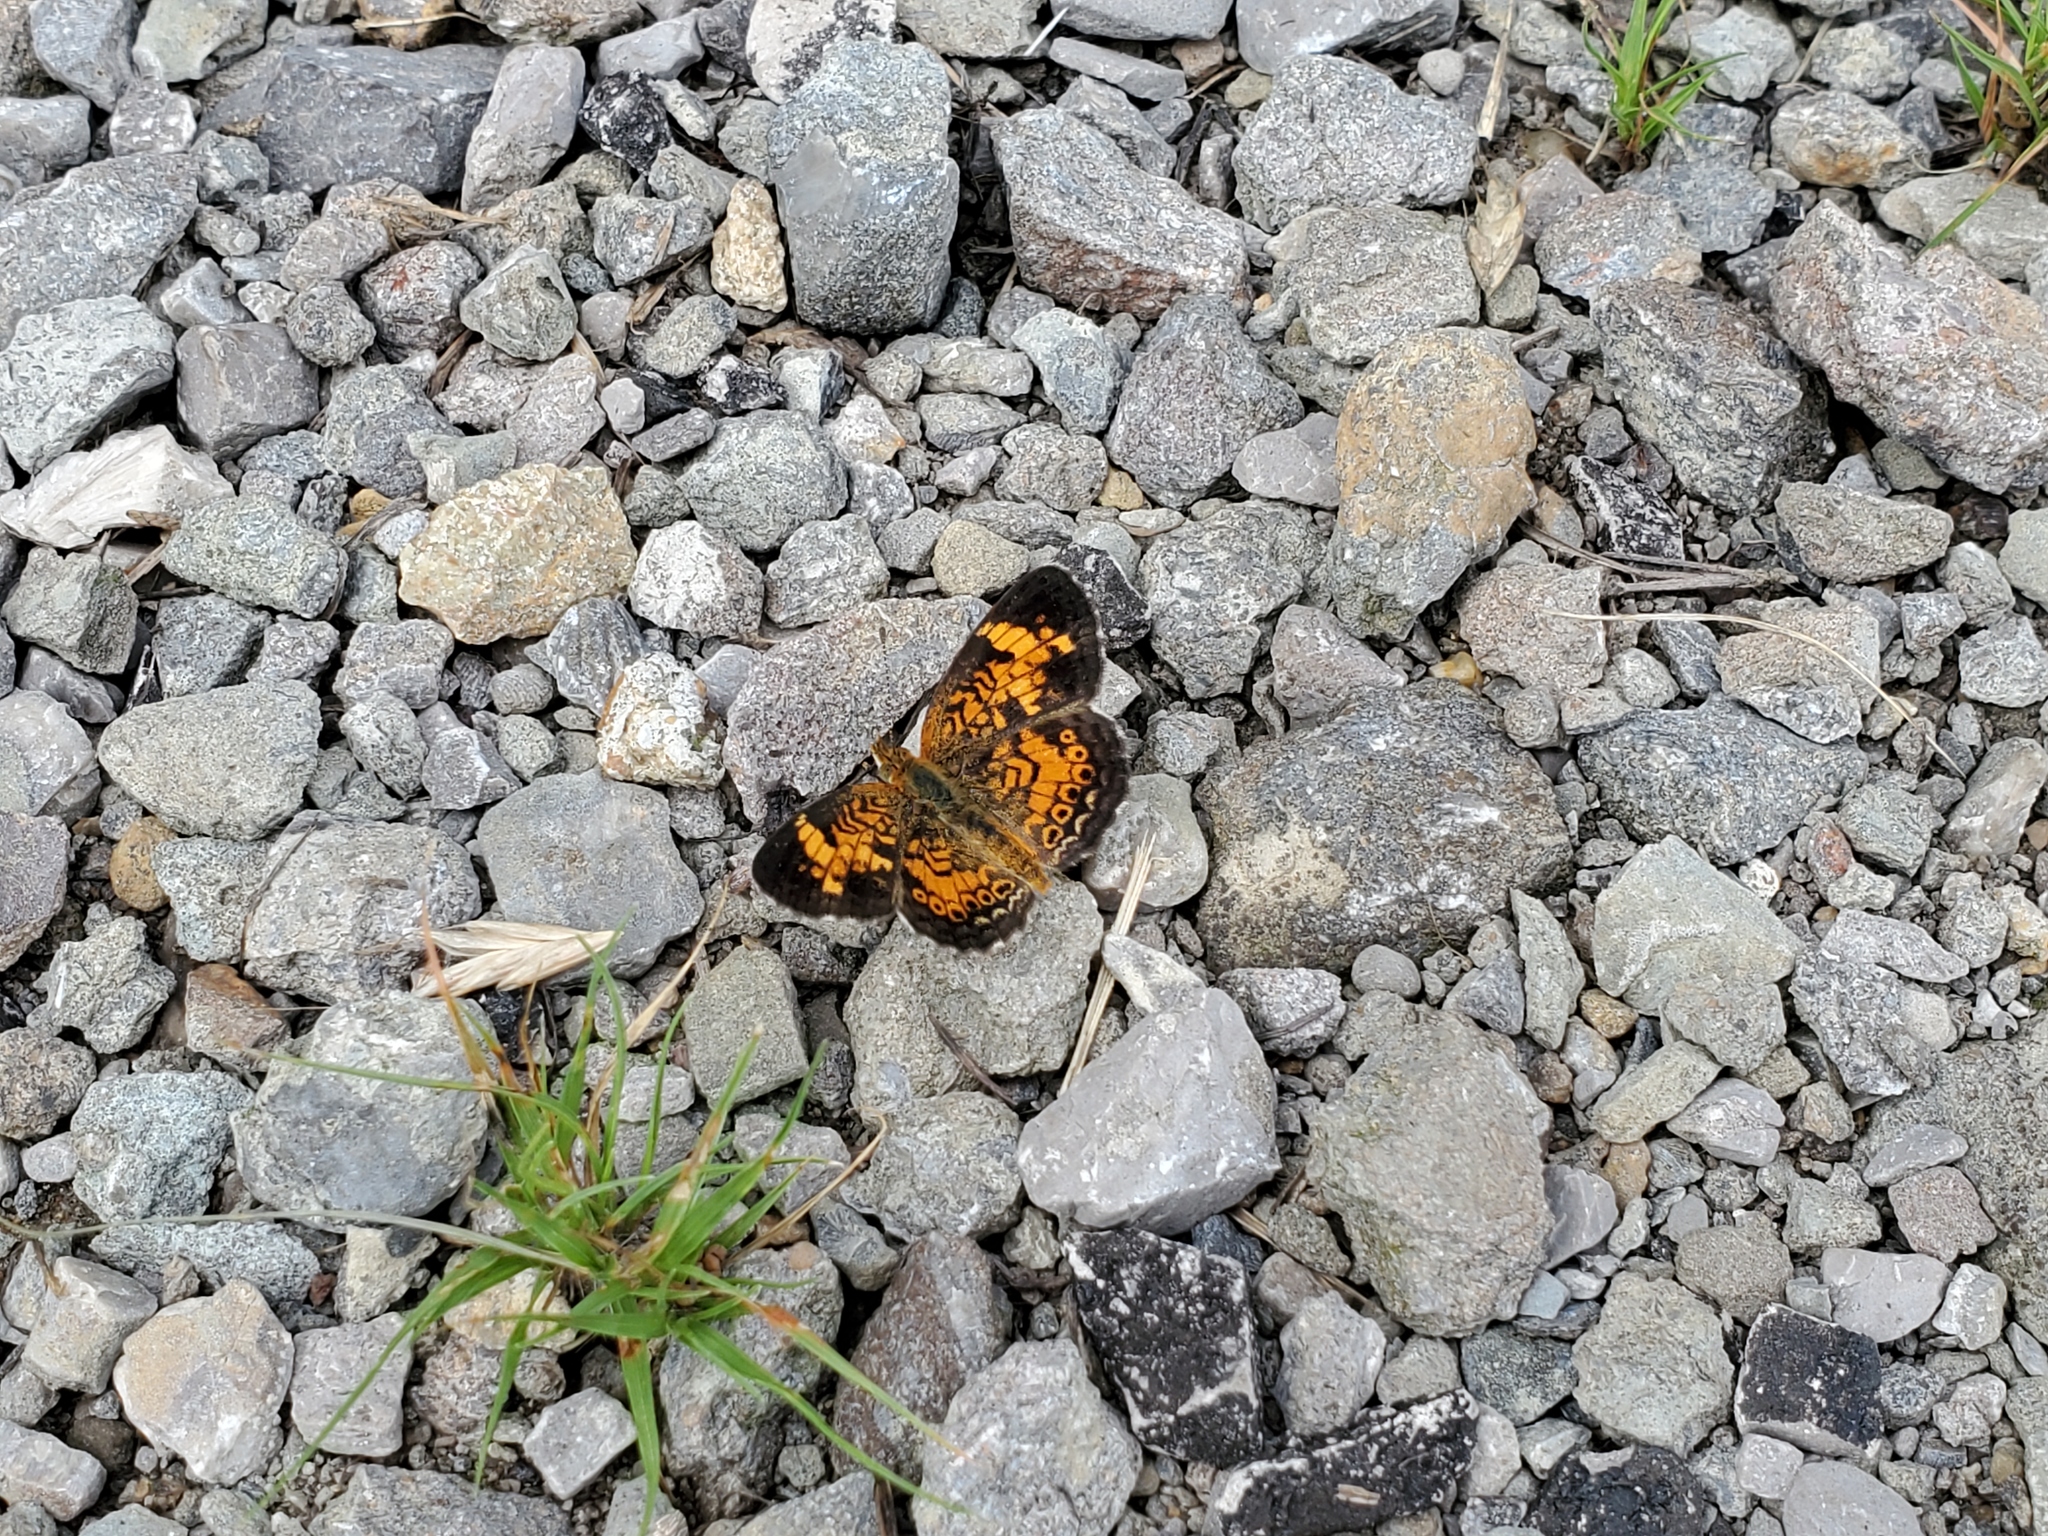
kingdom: Animalia
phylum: Arthropoda
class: Insecta
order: Lepidoptera
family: Nymphalidae
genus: Phyciodes
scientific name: Phyciodes tharos
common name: Pearl crescent
